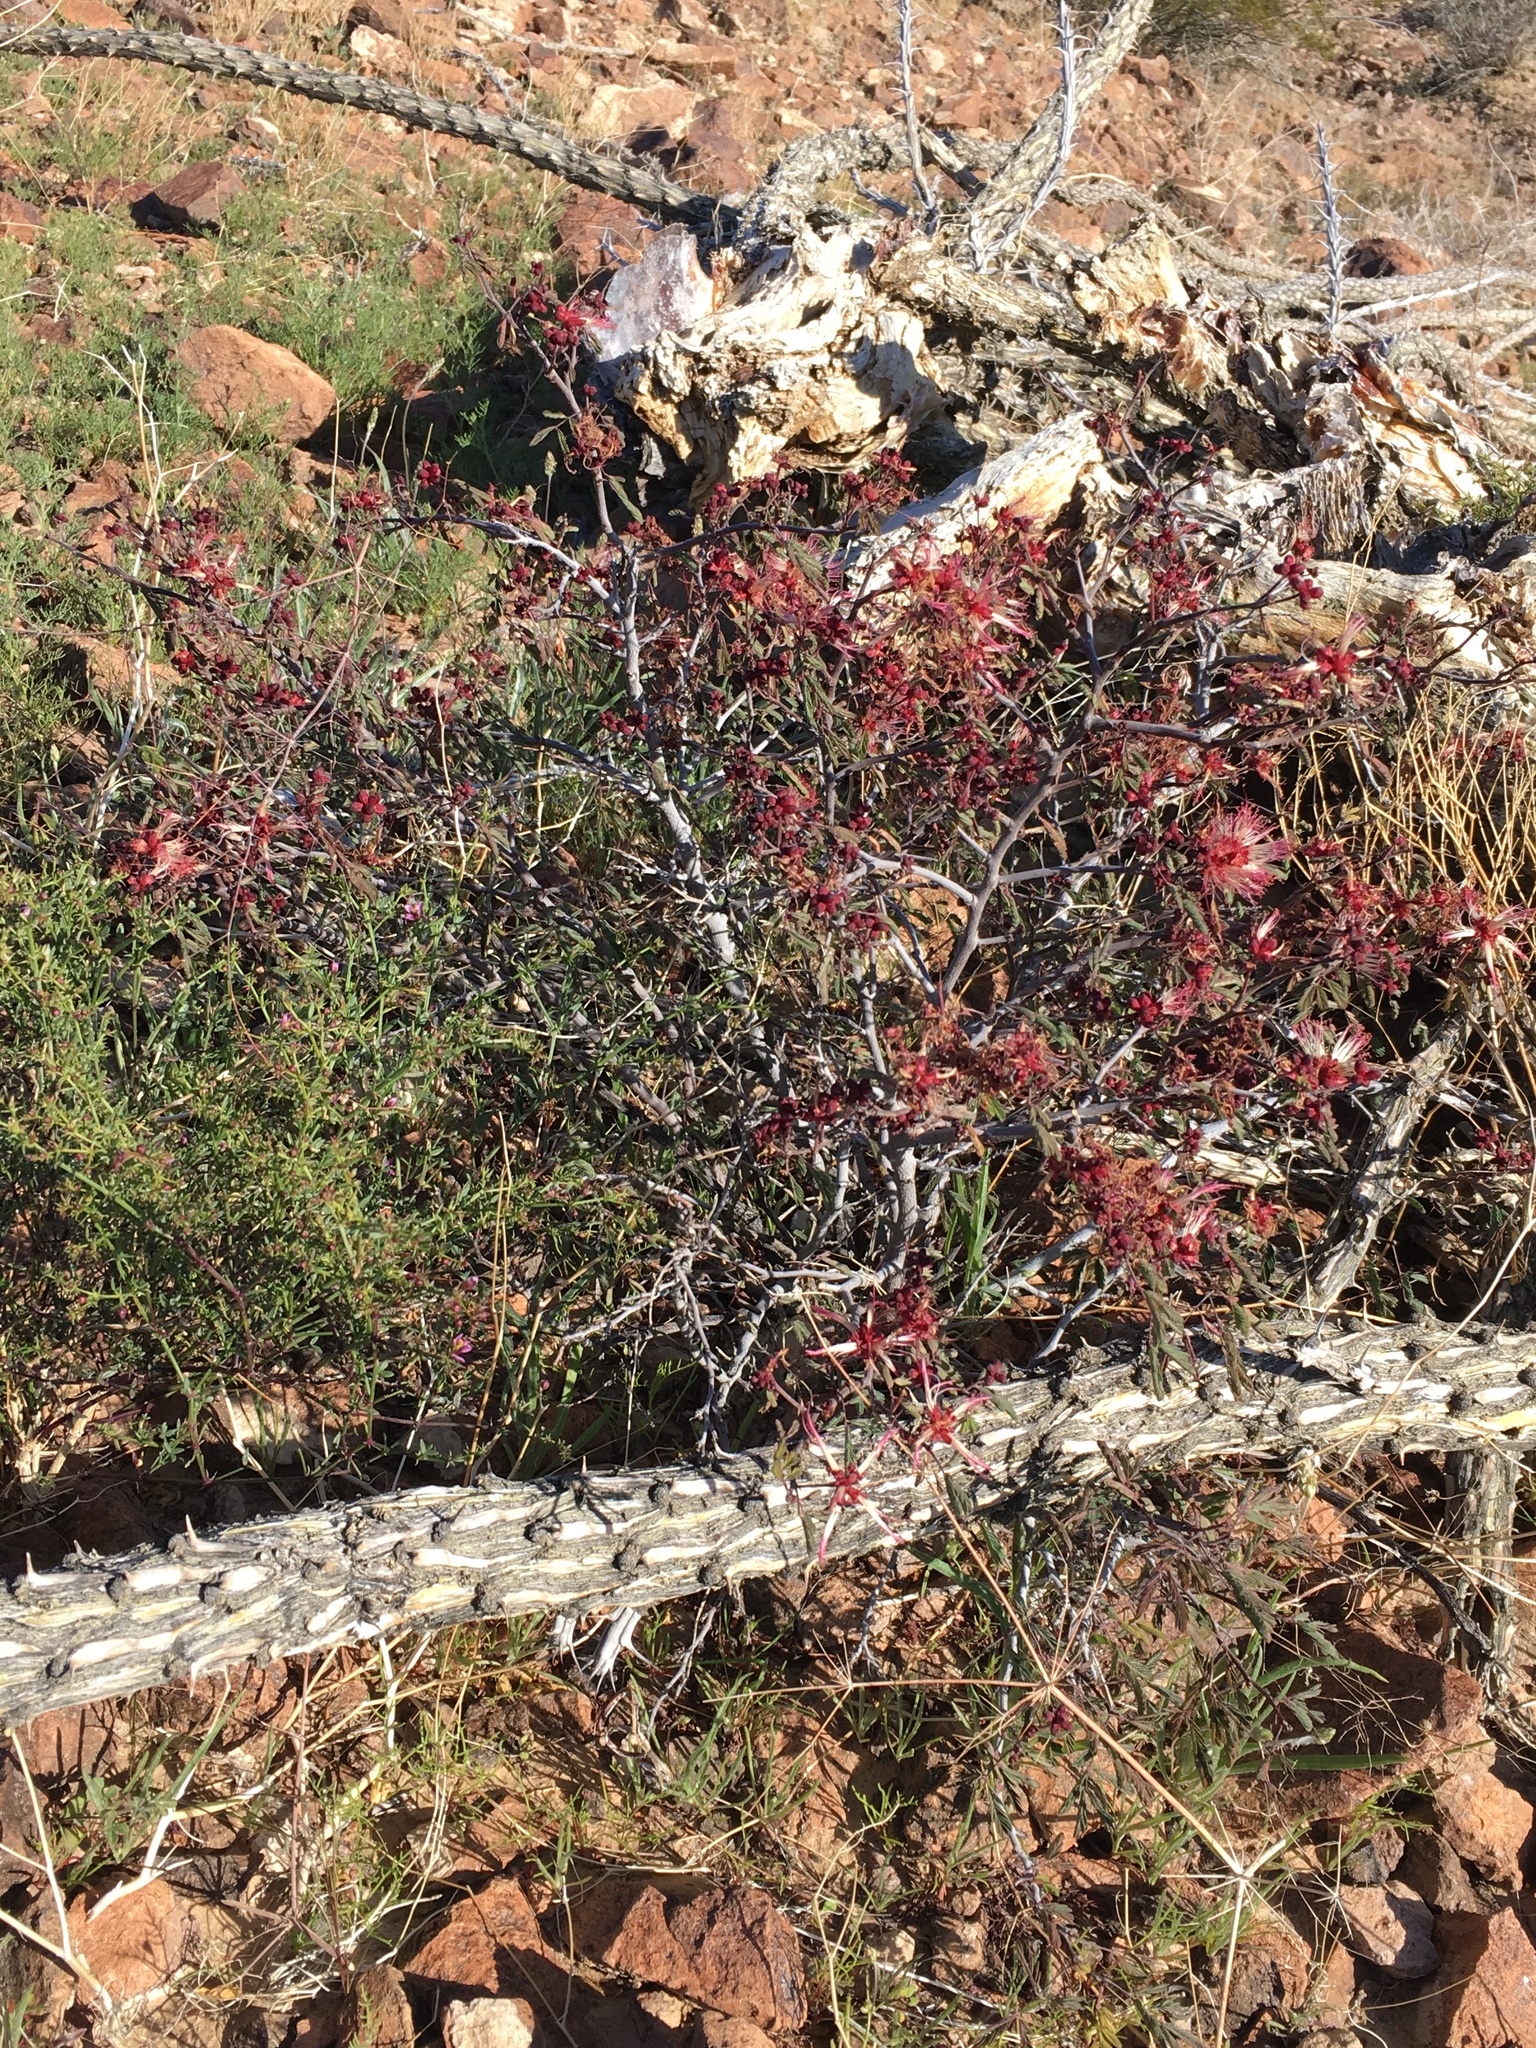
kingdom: Plantae
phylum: Tracheophyta
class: Magnoliopsida
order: Fabales
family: Fabaceae
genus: Calliandra
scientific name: Calliandra eriophylla
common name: Fairy-duster
